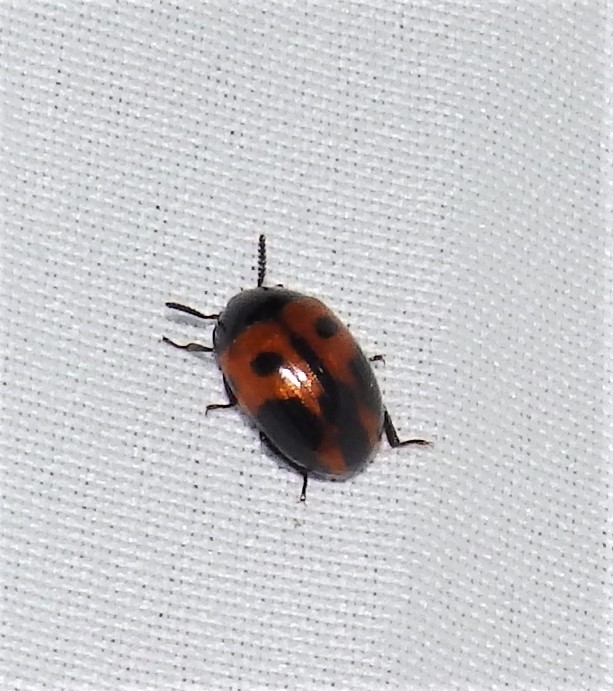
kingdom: Animalia
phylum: Arthropoda
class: Insecta
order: Coleoptera
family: Tenebrionidae
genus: Diaperis
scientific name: Diaperis maculata
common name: Darkling beetle
